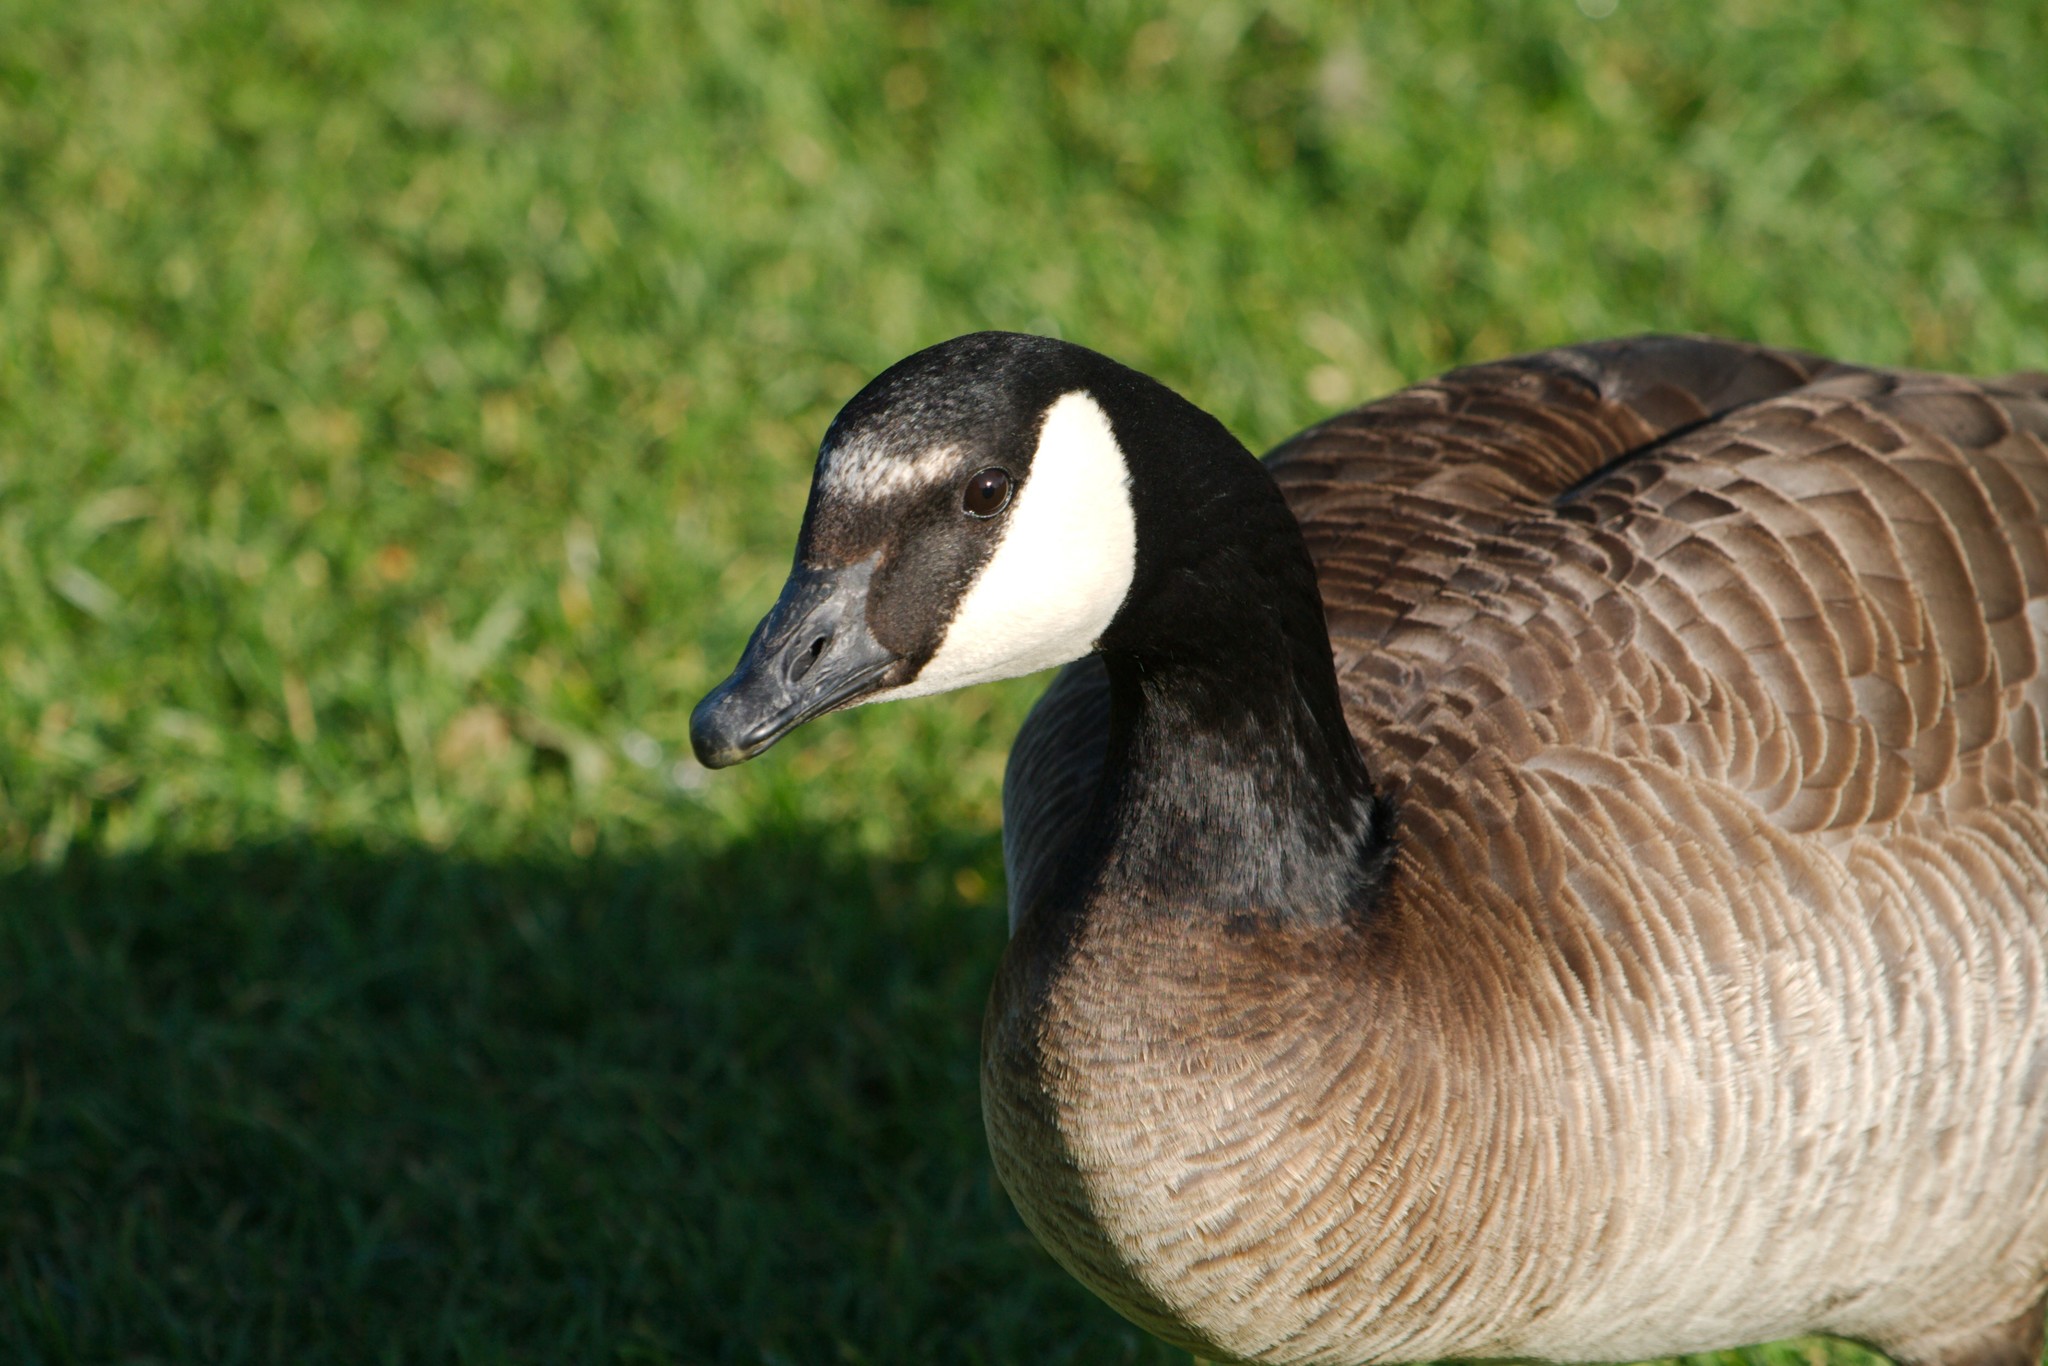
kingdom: Animalia
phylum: Chordata
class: Aves
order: Anseriformes
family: Anatidae
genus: Branta
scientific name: Branta canadensis
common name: Canada goose
